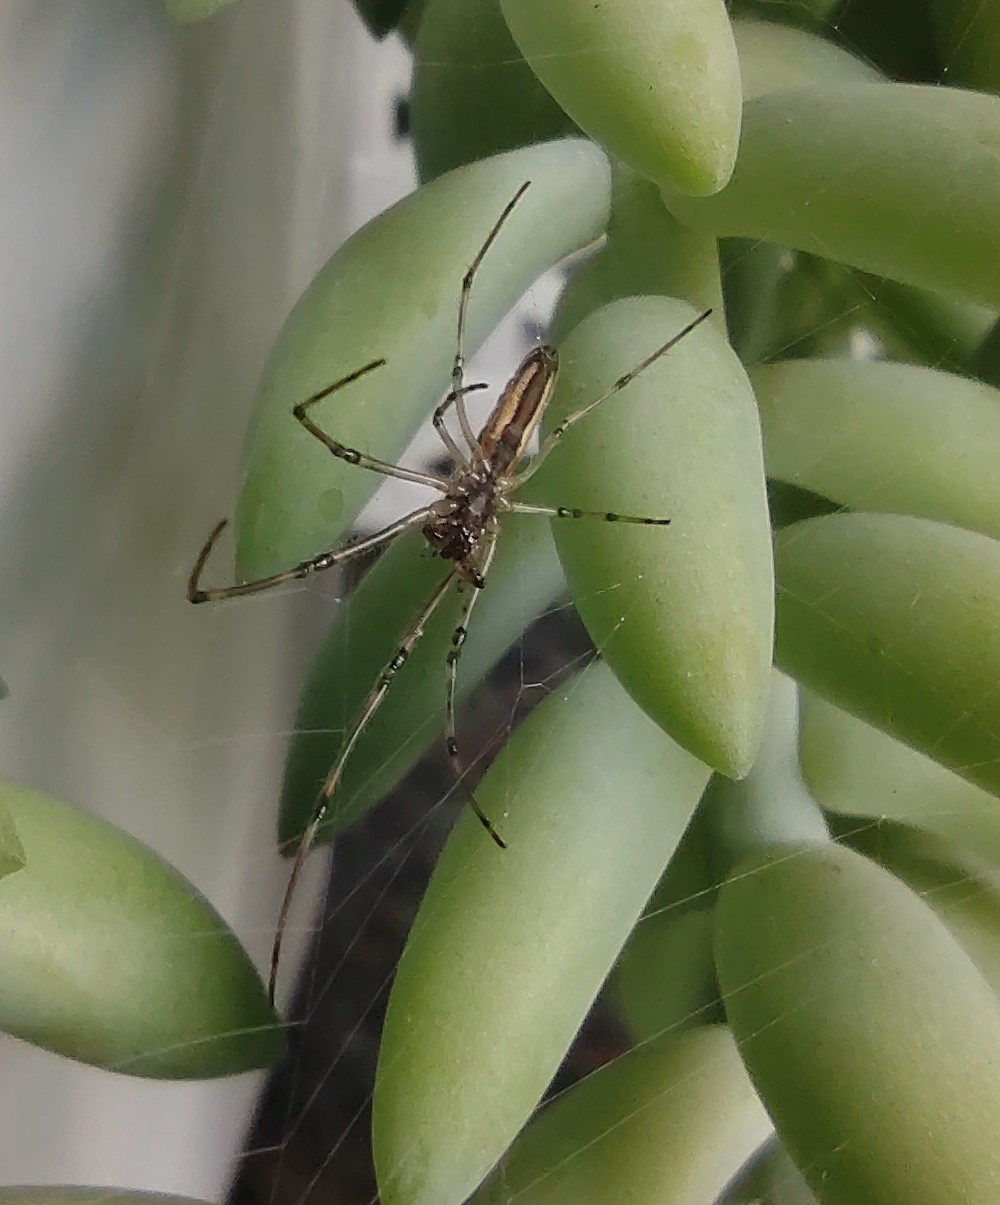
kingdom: Animalia
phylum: Arthropoda
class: Arachnida
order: Araneae
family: Tetragnathidae
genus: Tetragnatha
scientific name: Tetragnatha
